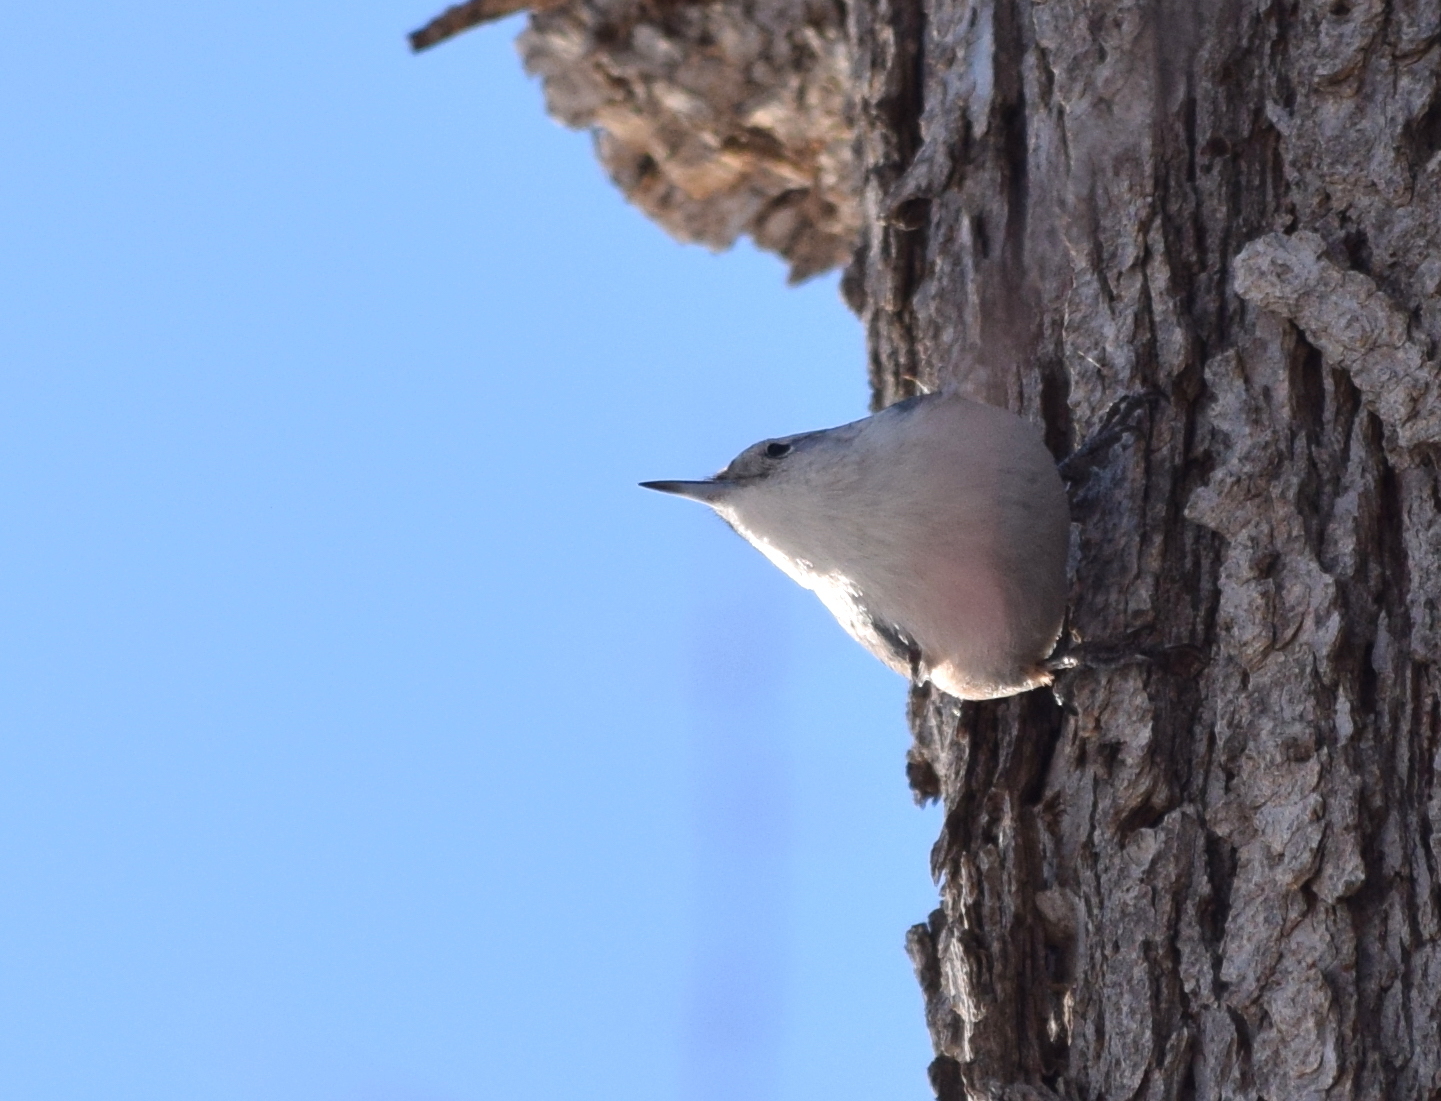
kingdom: Animalia
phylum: Chordata
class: Aves
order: Passeriformes
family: Sittidae
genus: Sitta
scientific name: Sitta carolinensis
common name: White-breasted nuthatch
